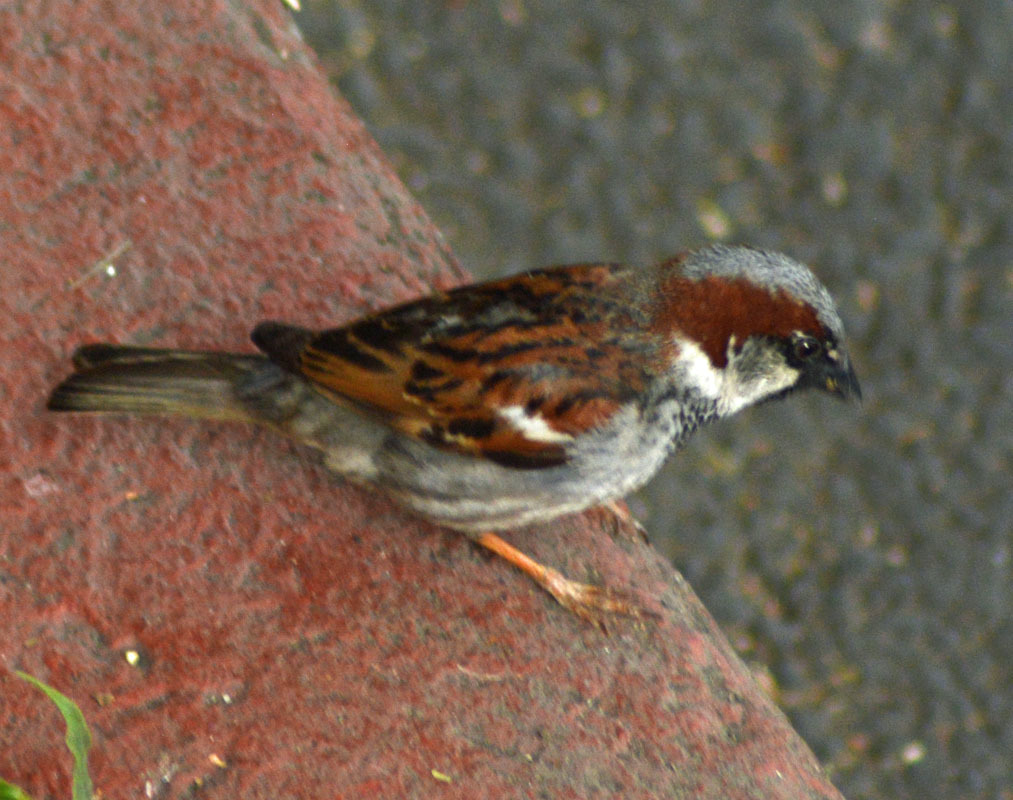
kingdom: Animalia
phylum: Chordata
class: Aves
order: Passeriformes
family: Passeridae
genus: Passer
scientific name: Passer domesticus
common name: House sparrow
